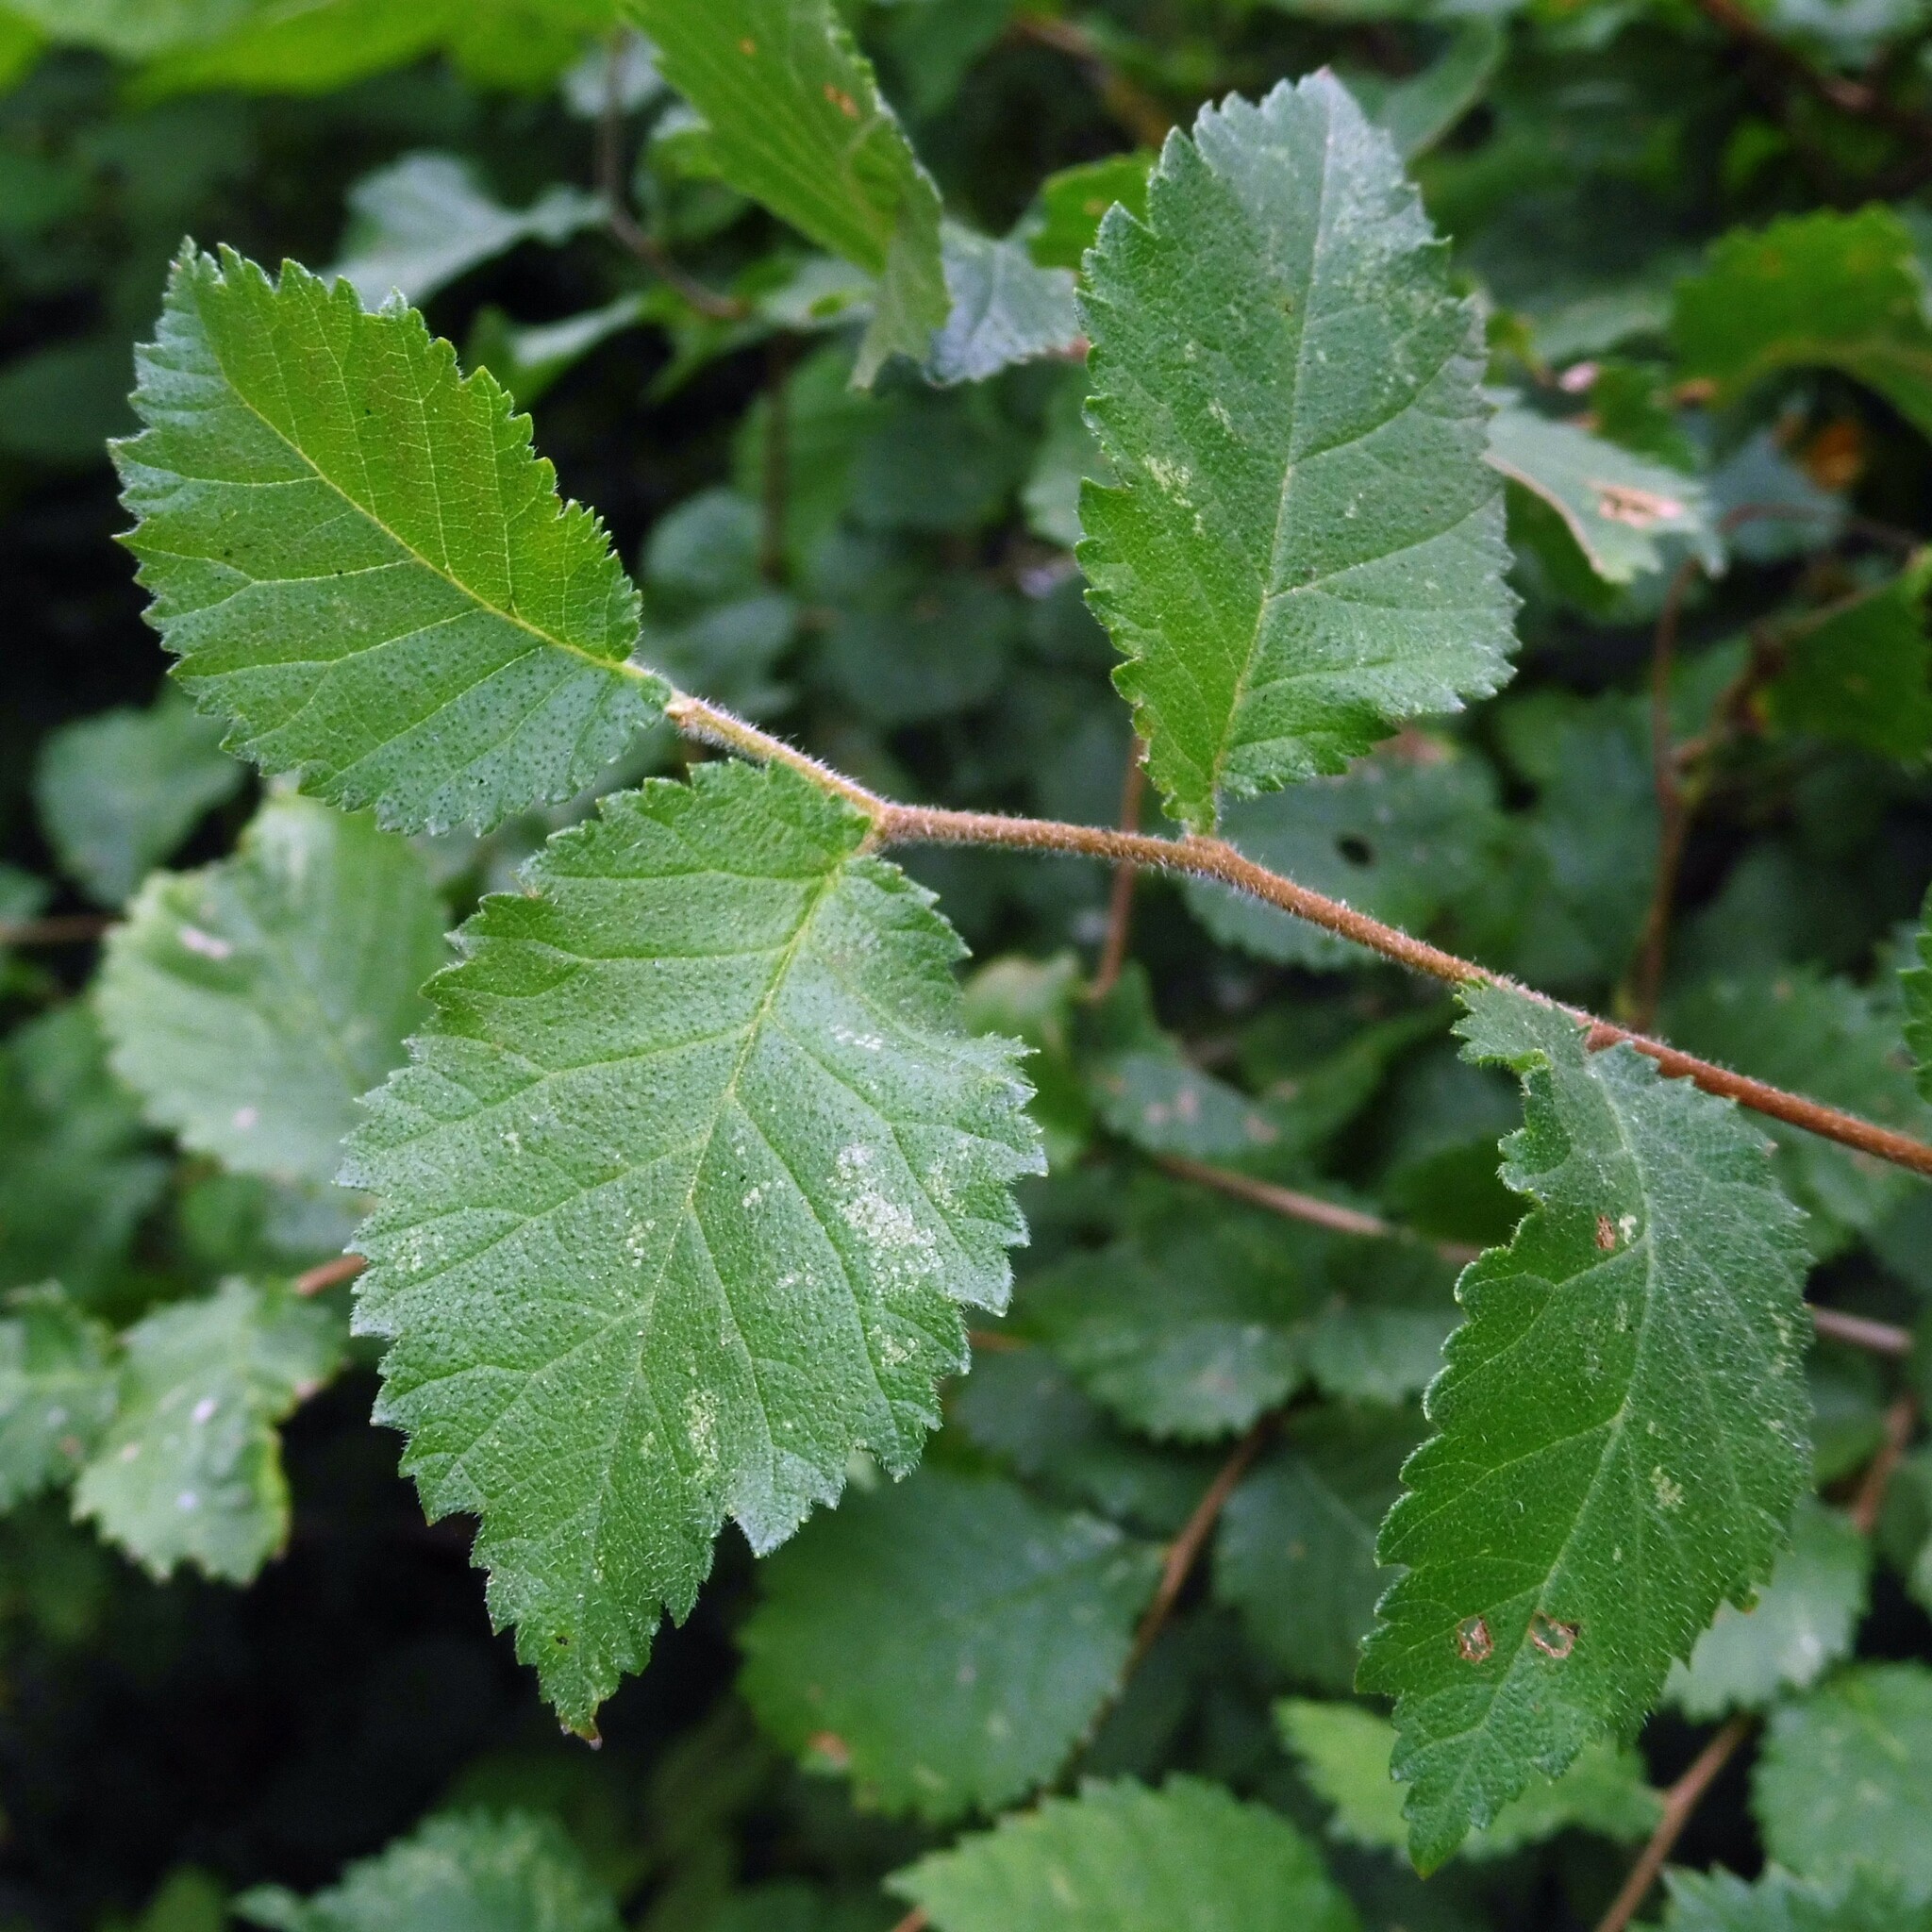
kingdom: Plantae
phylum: Tracheophyta
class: Magnoliopsida
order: Rosales
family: Ulmaceae
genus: Ulmus
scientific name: Ulmus minor
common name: Small-leaved elm
